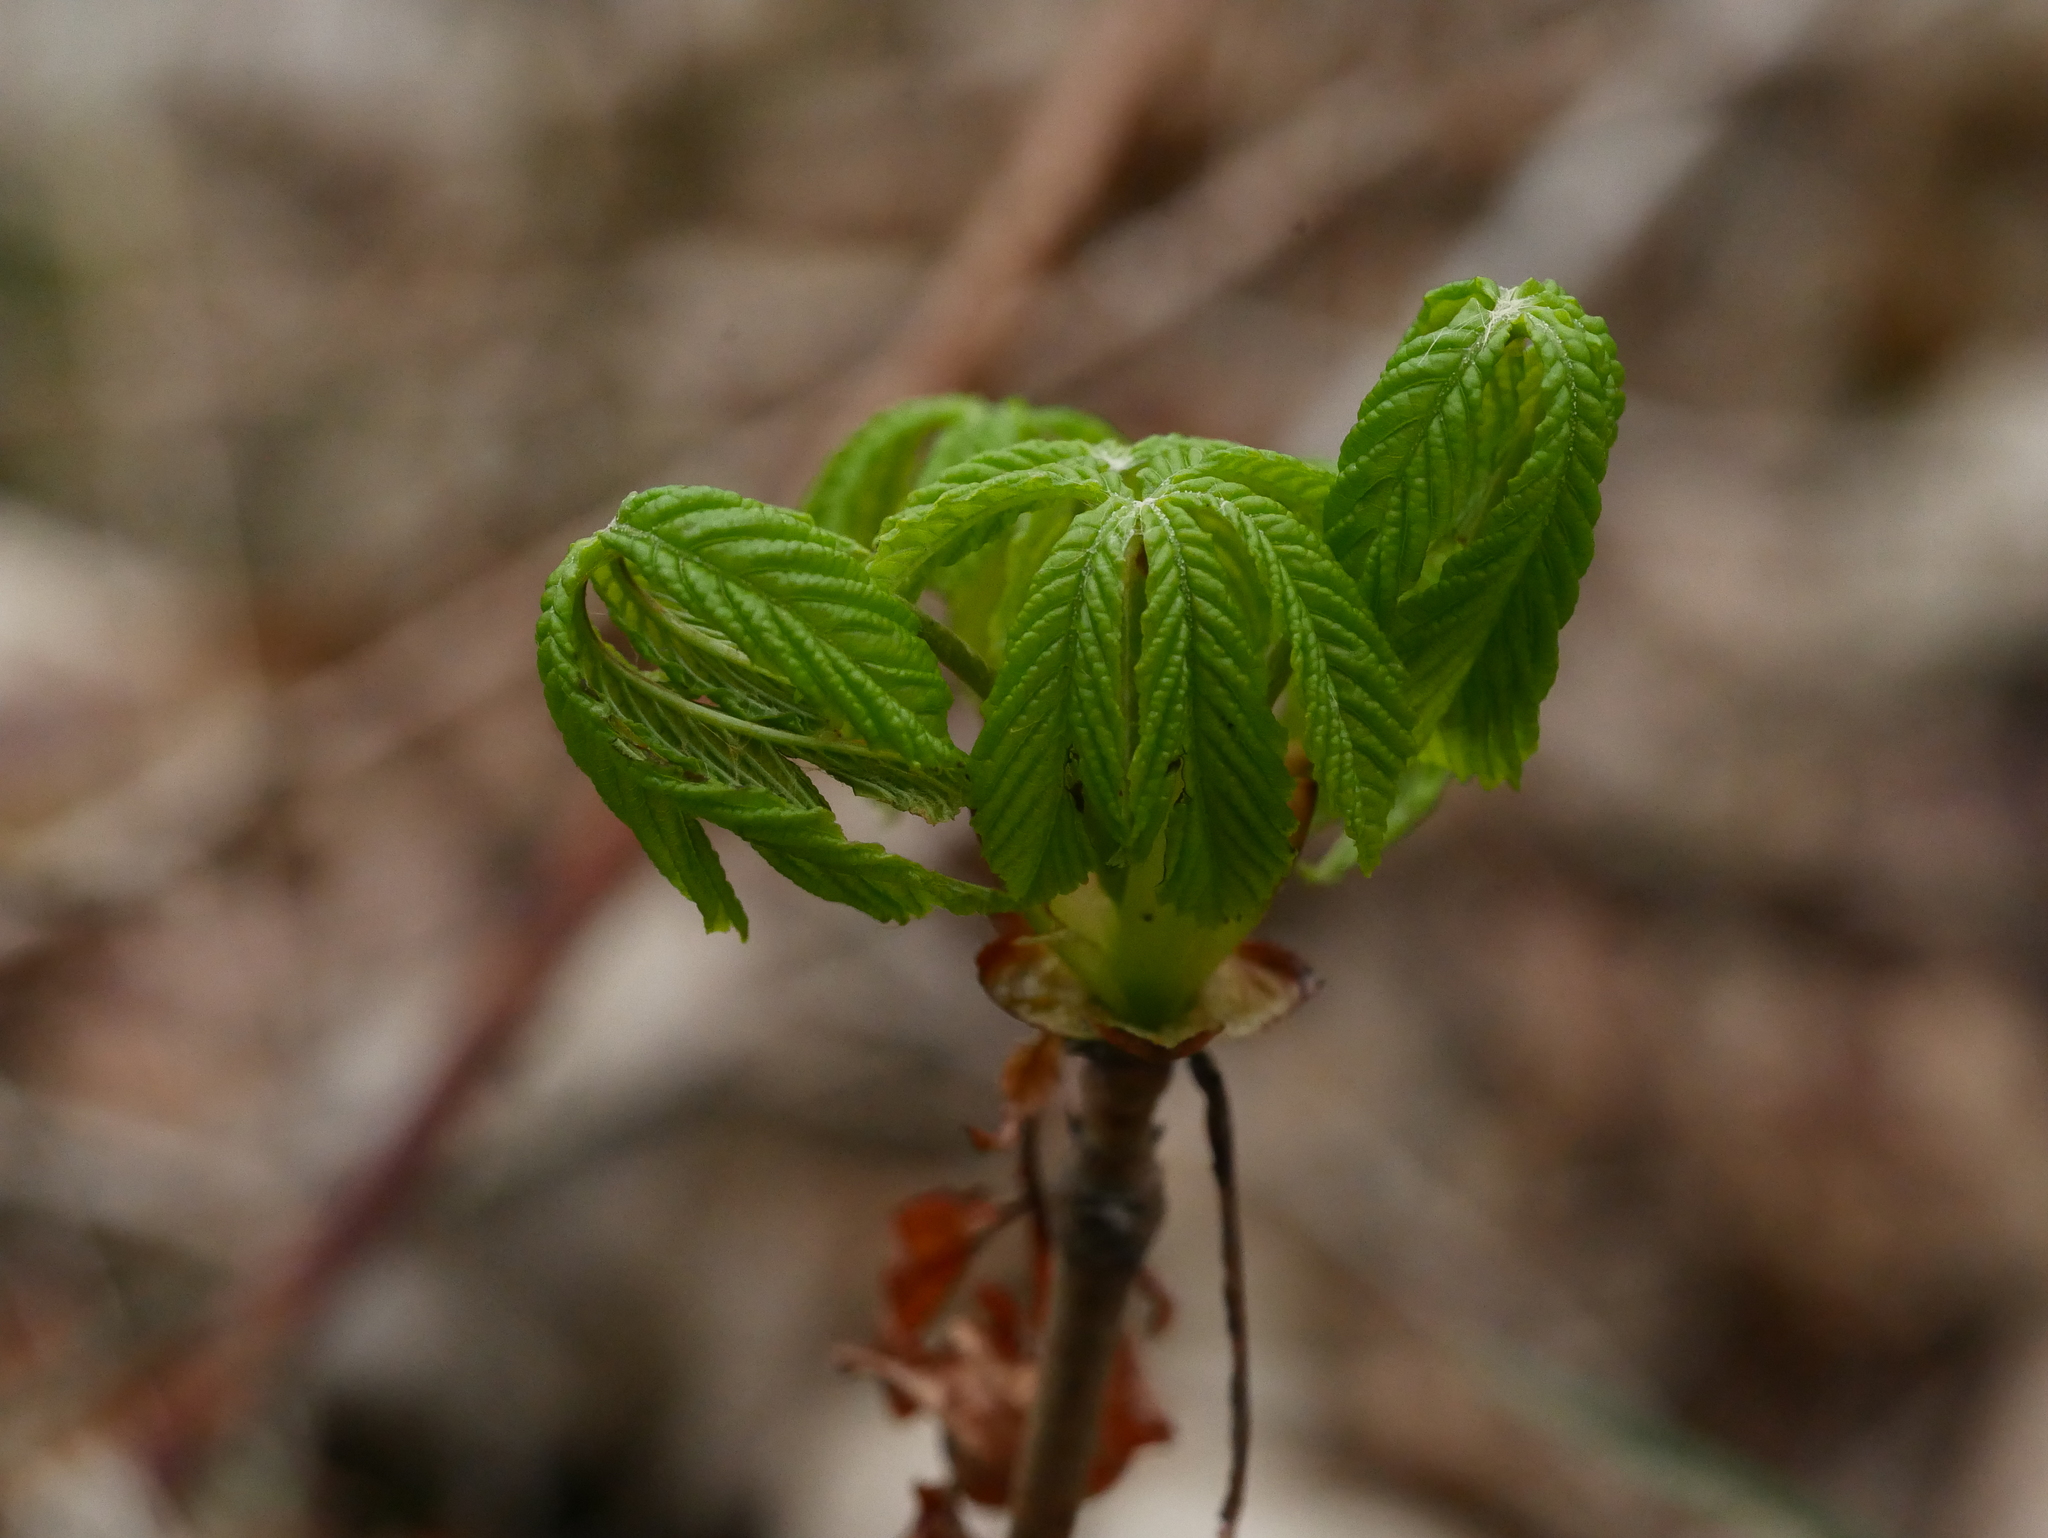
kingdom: Plantae
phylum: Tracheophyta
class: Magnoliopsida
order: Sapindales
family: Sapindaceae
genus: Aesculus
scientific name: Aesculus hippocastanum
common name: Horse-chestnut
